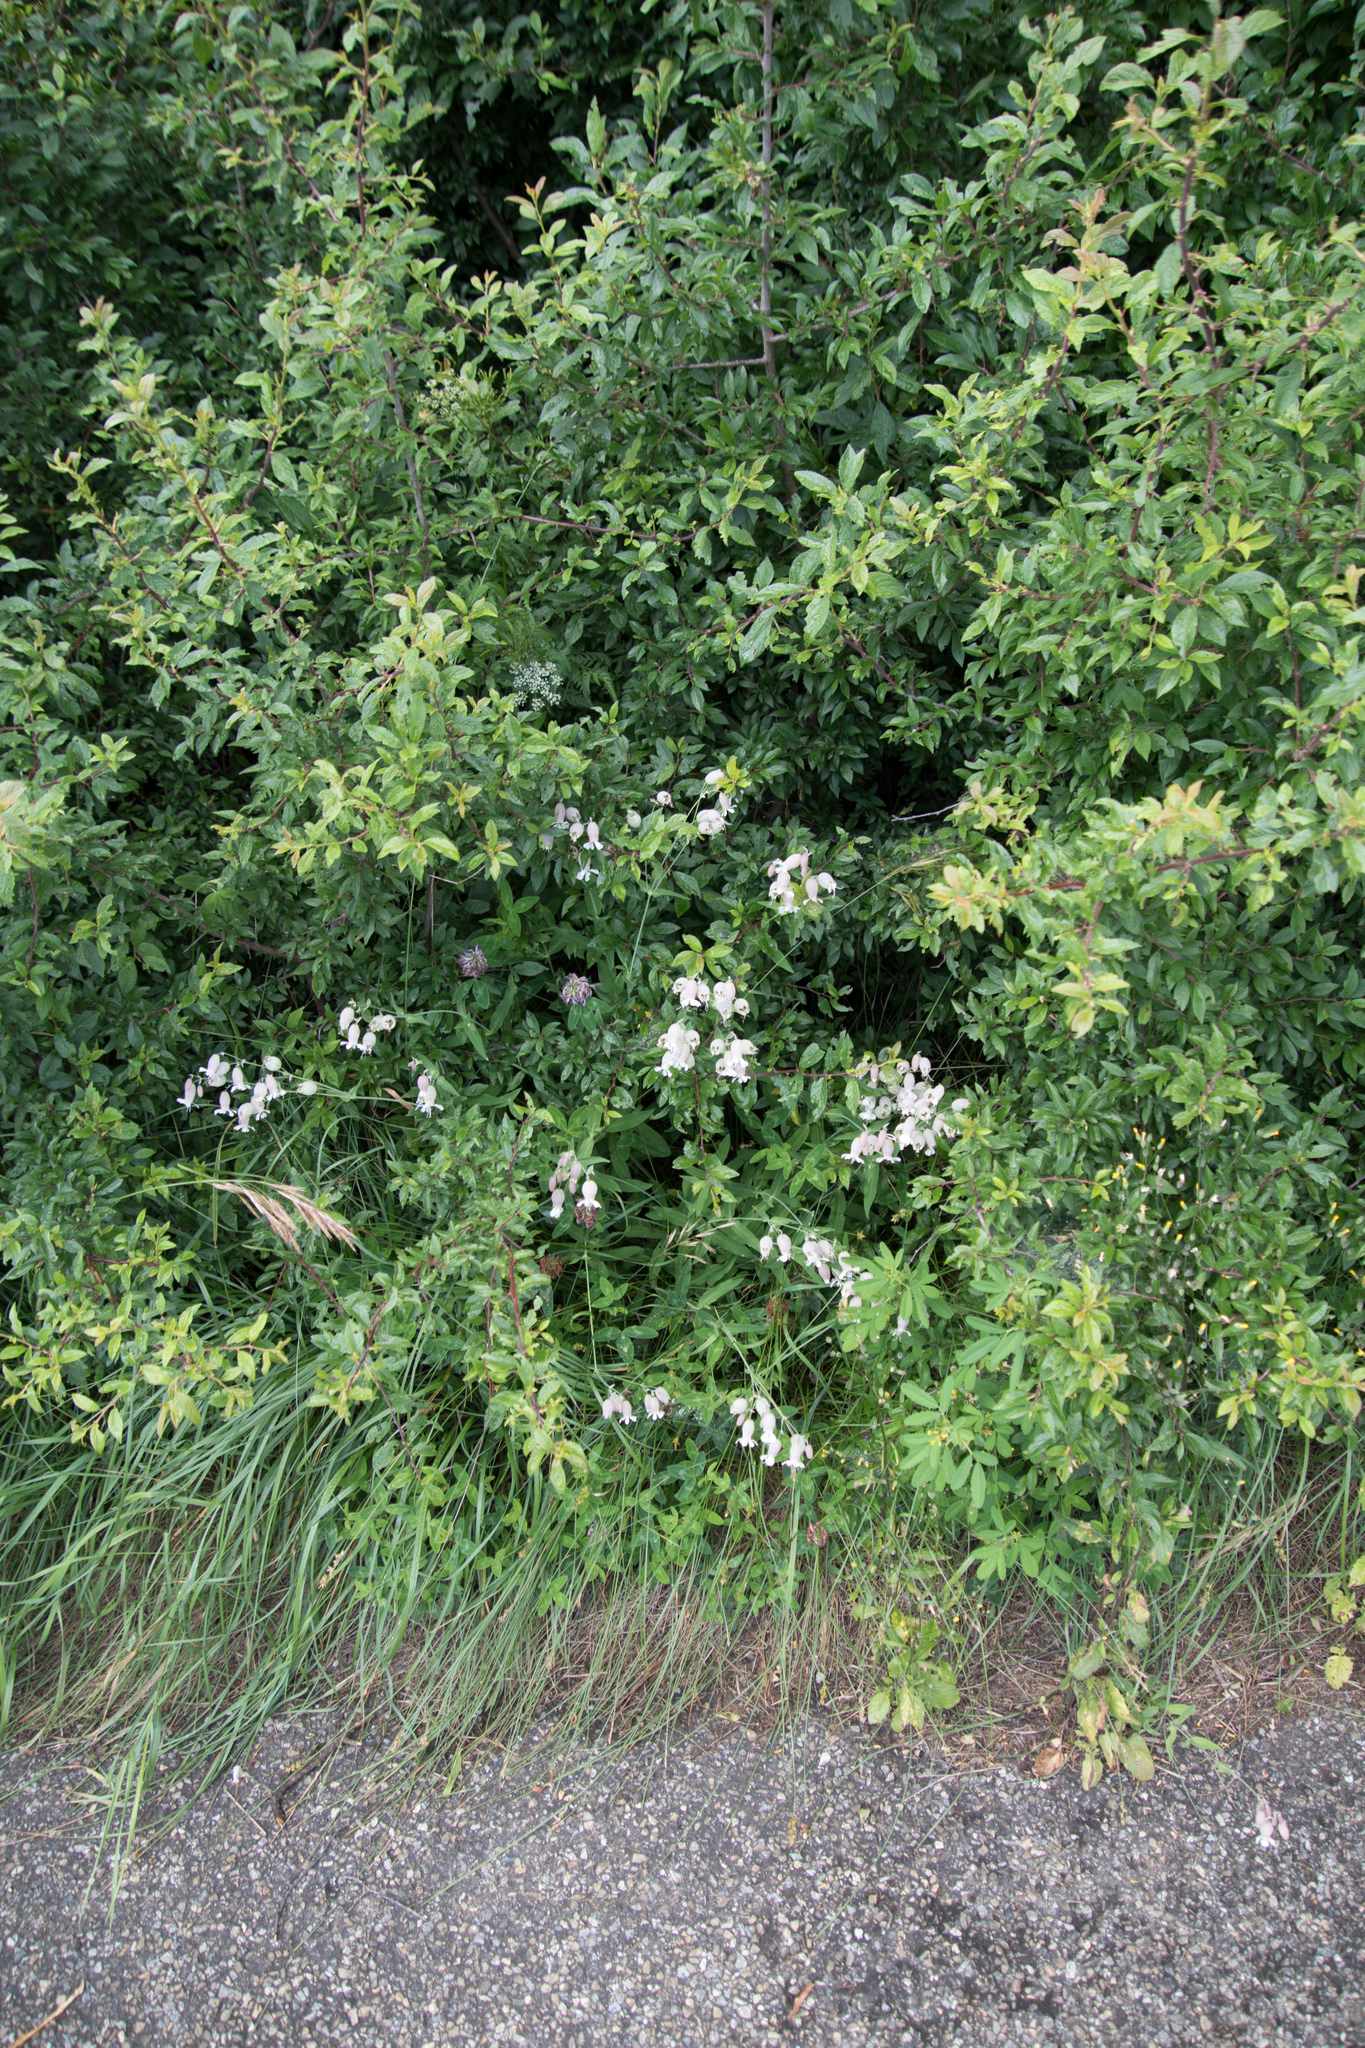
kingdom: Plantae
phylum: Tracheophyta
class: Magnoliopsida
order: Caryophyllales
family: Caryophyllaceae
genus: Silene
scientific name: Silene vulgaris
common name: Bladder campion
